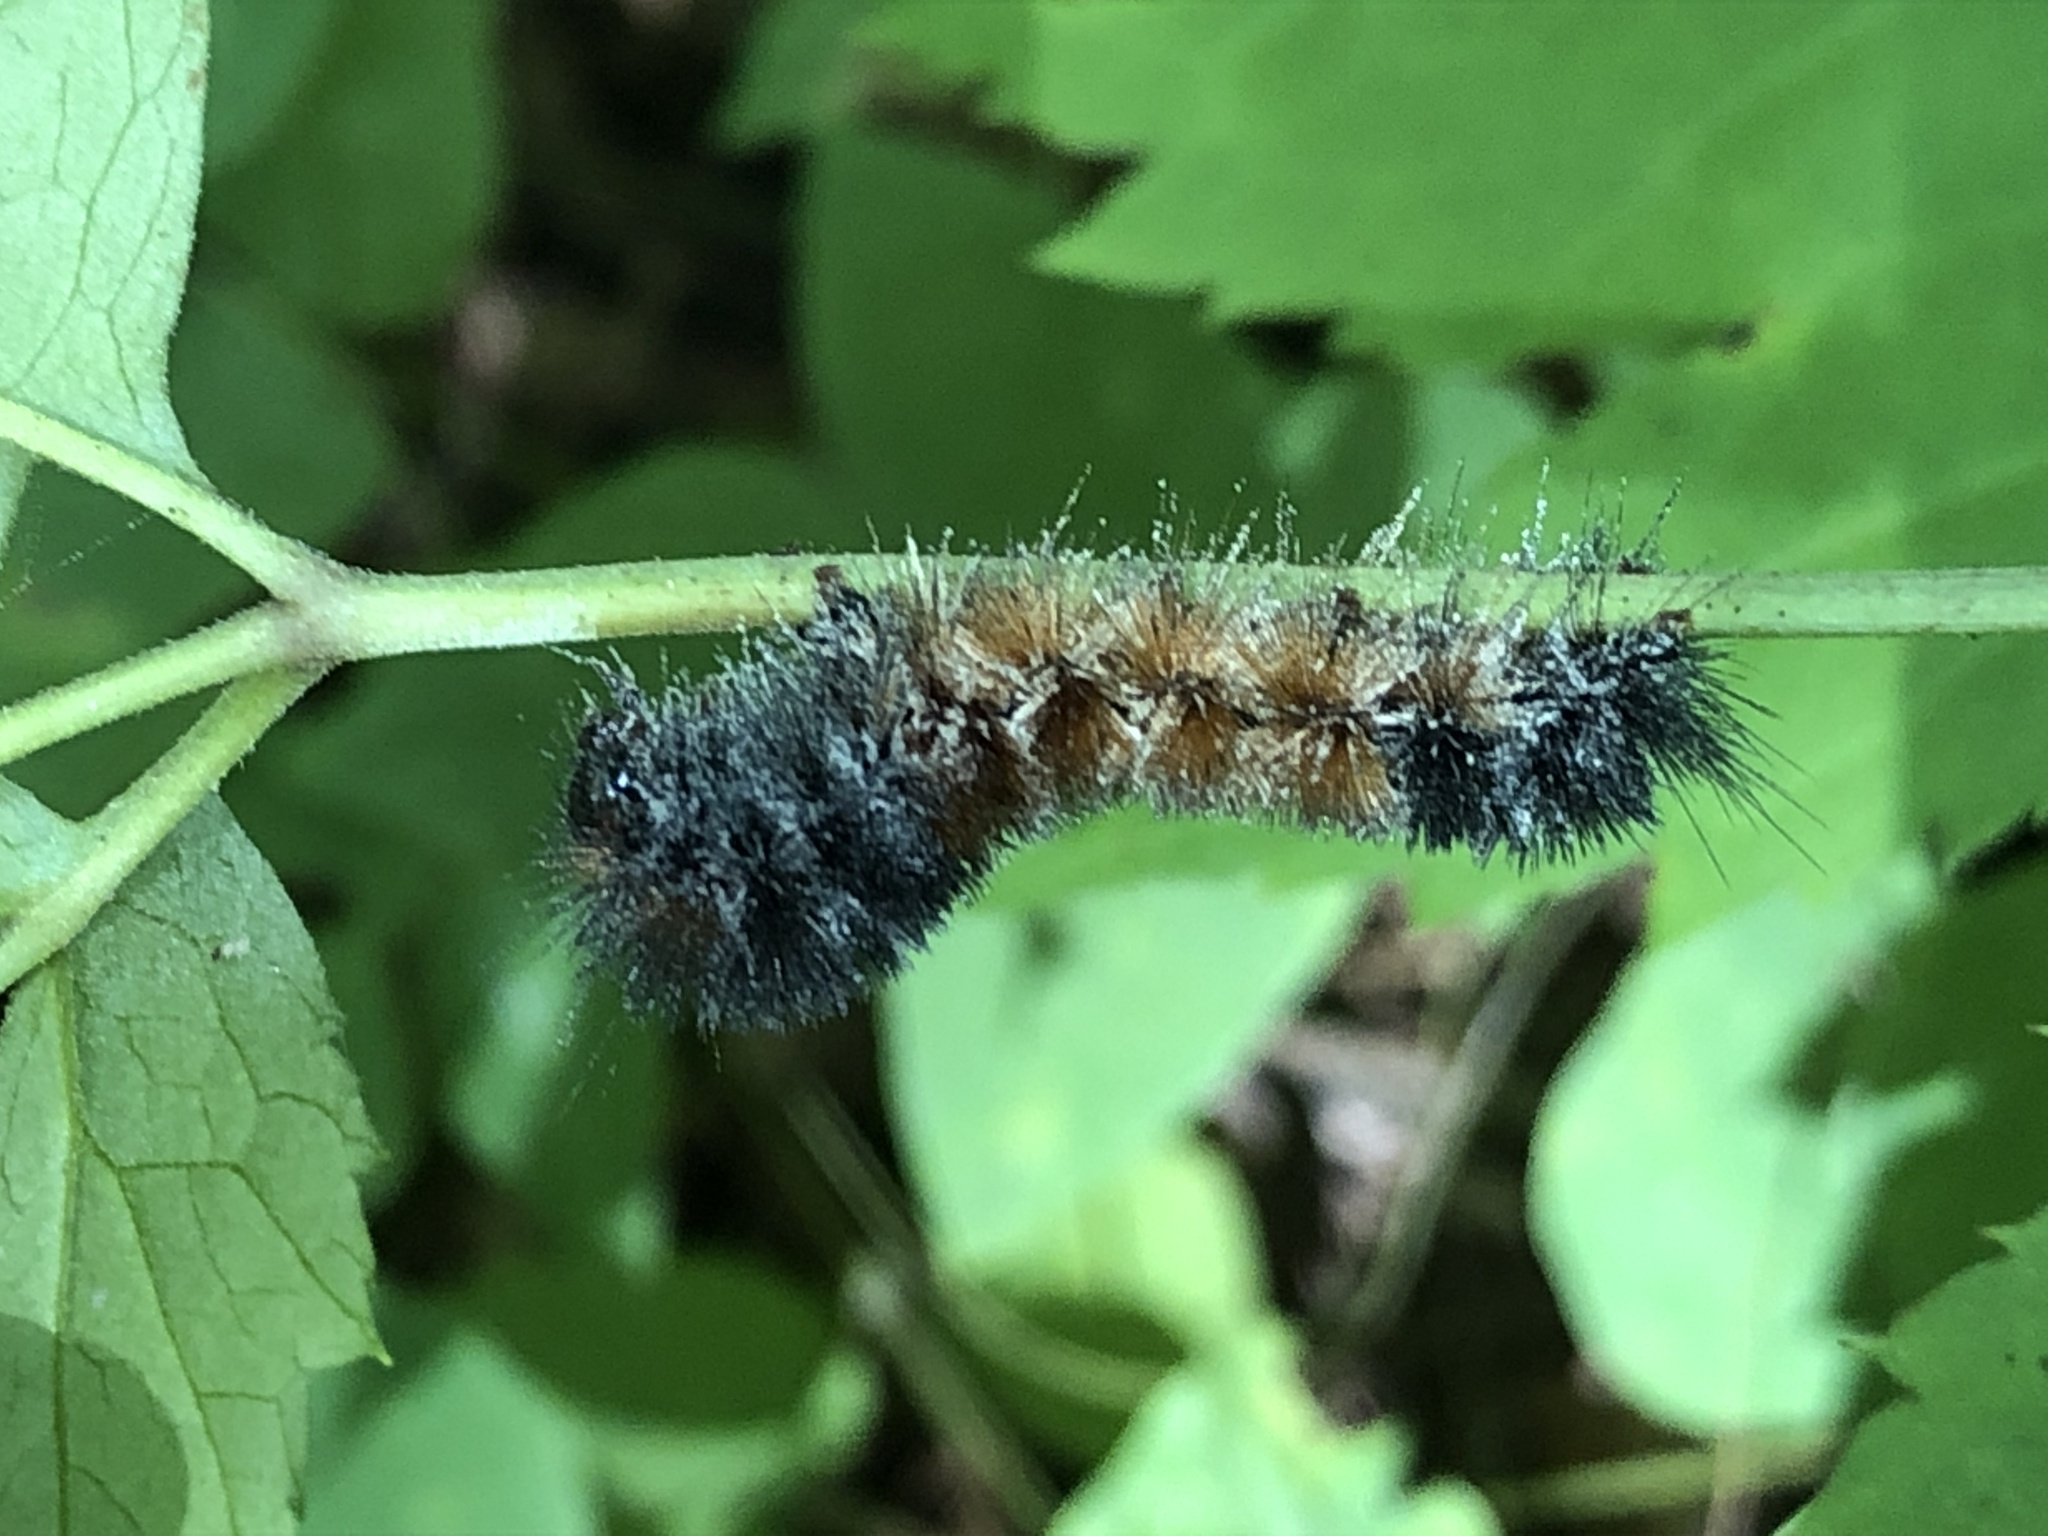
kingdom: Animalia
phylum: Arthropoda
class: Insecta
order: Lepidoptera
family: Erebidae
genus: Pyrrharctia
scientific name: Pyrrharctia isabella
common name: Isabella tiger moth
